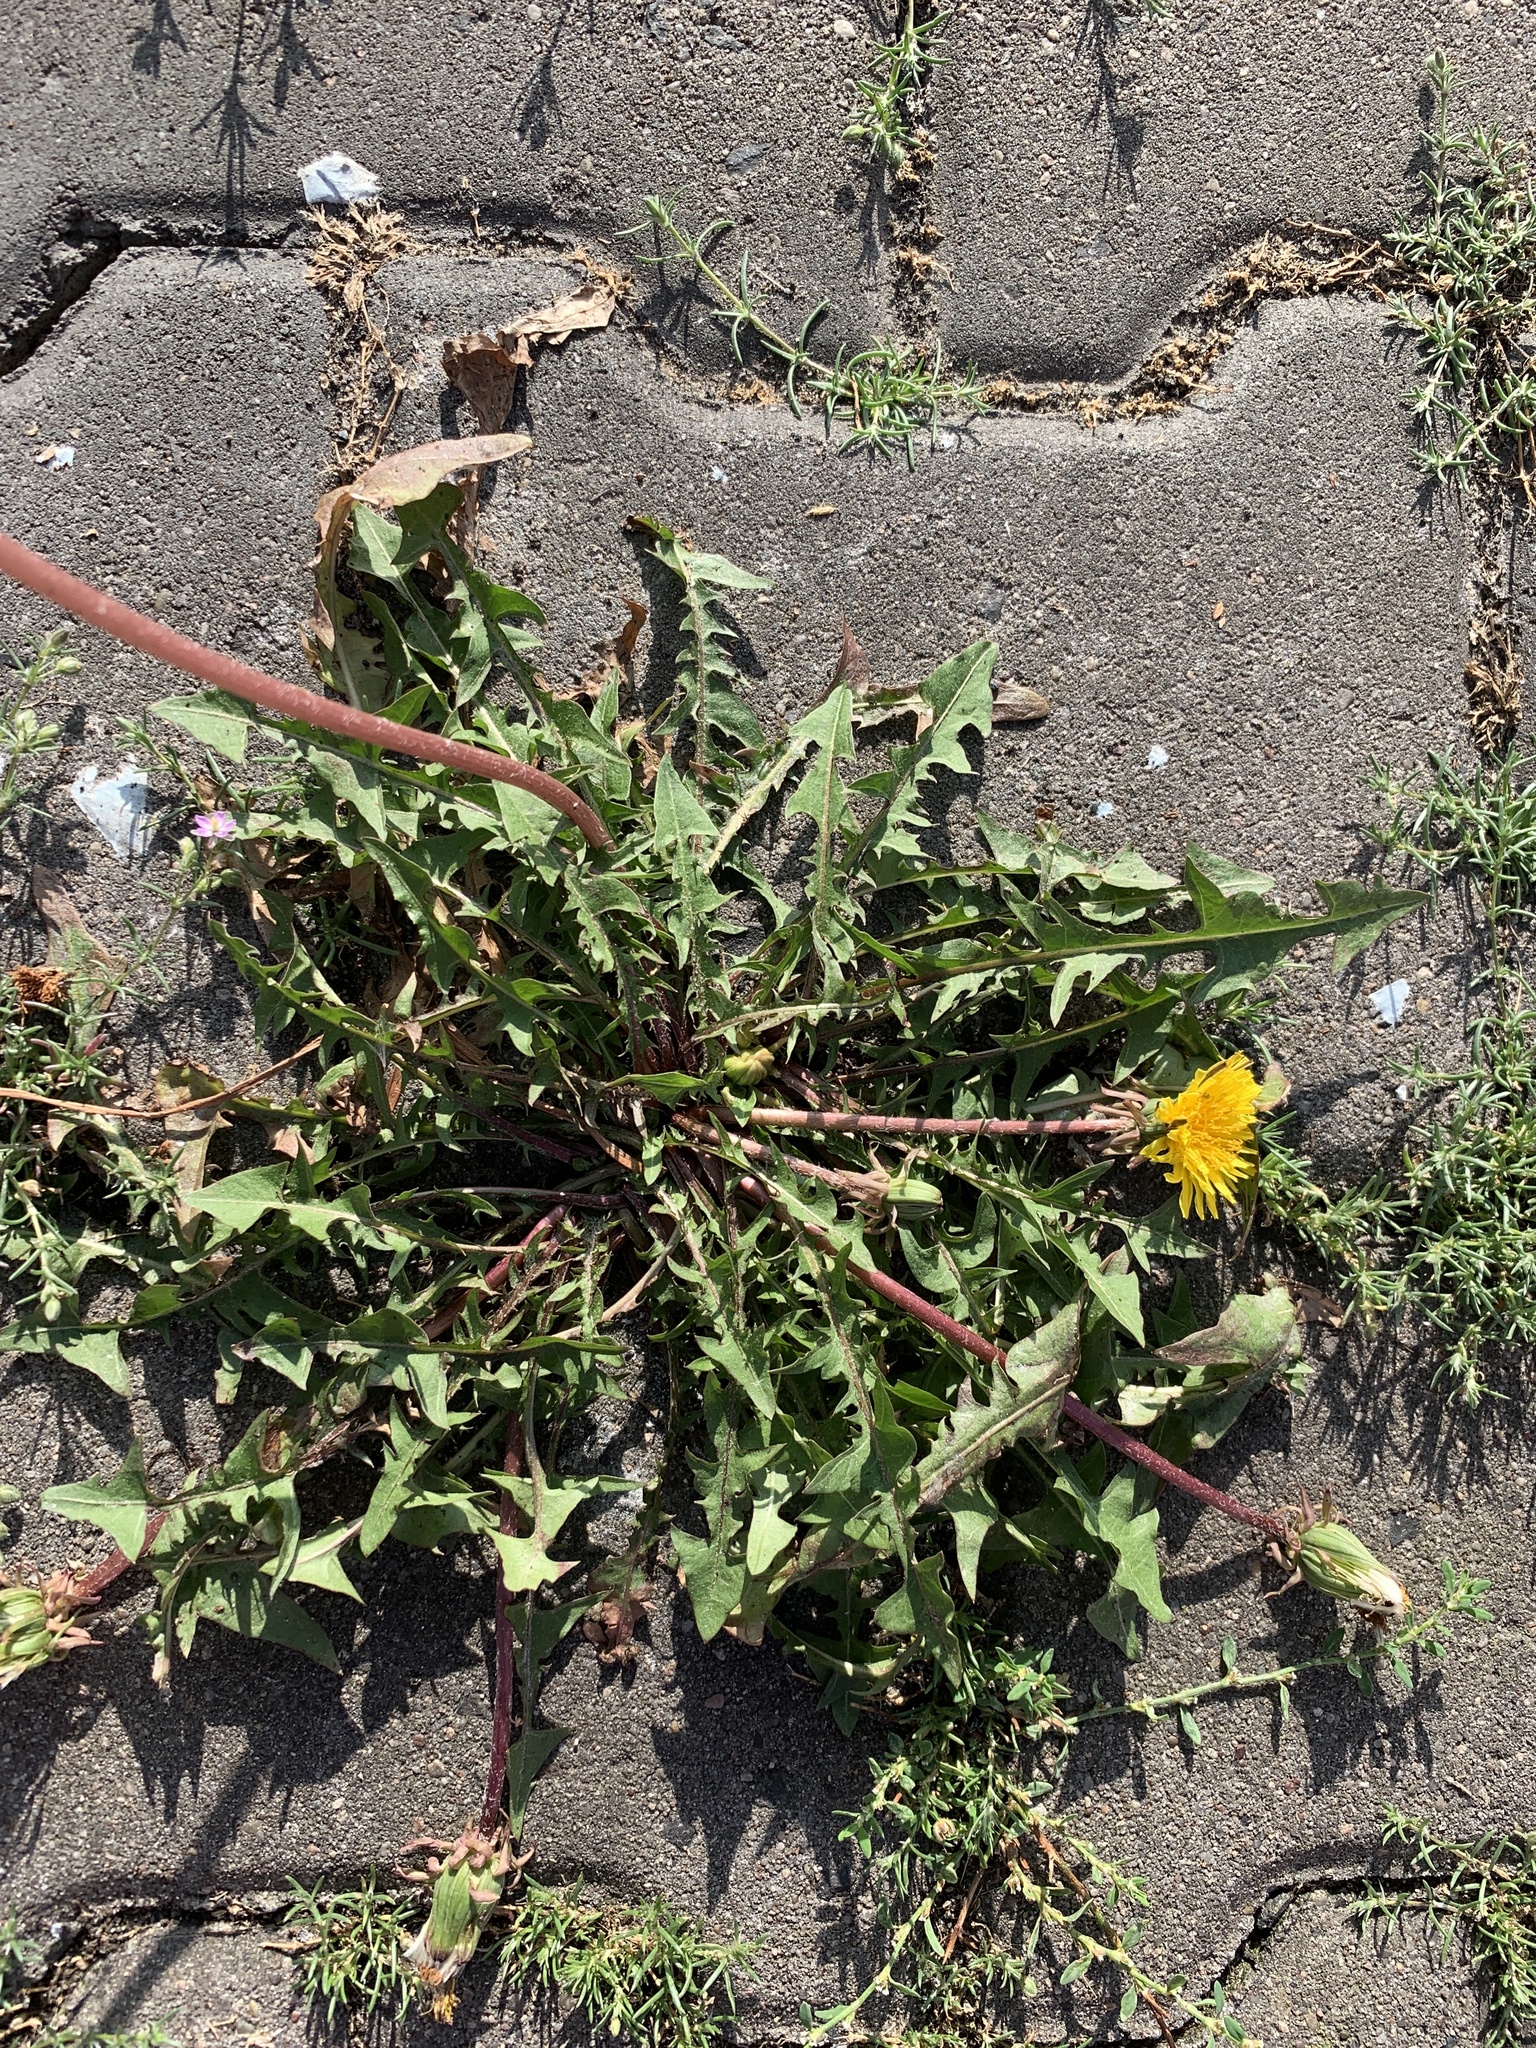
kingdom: Plantae
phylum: Tracheophyta
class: Magnoliopsida
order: Asterales
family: Asteraceae
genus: Taraxacum
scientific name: Taraxacum officinale
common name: Common dandelion
